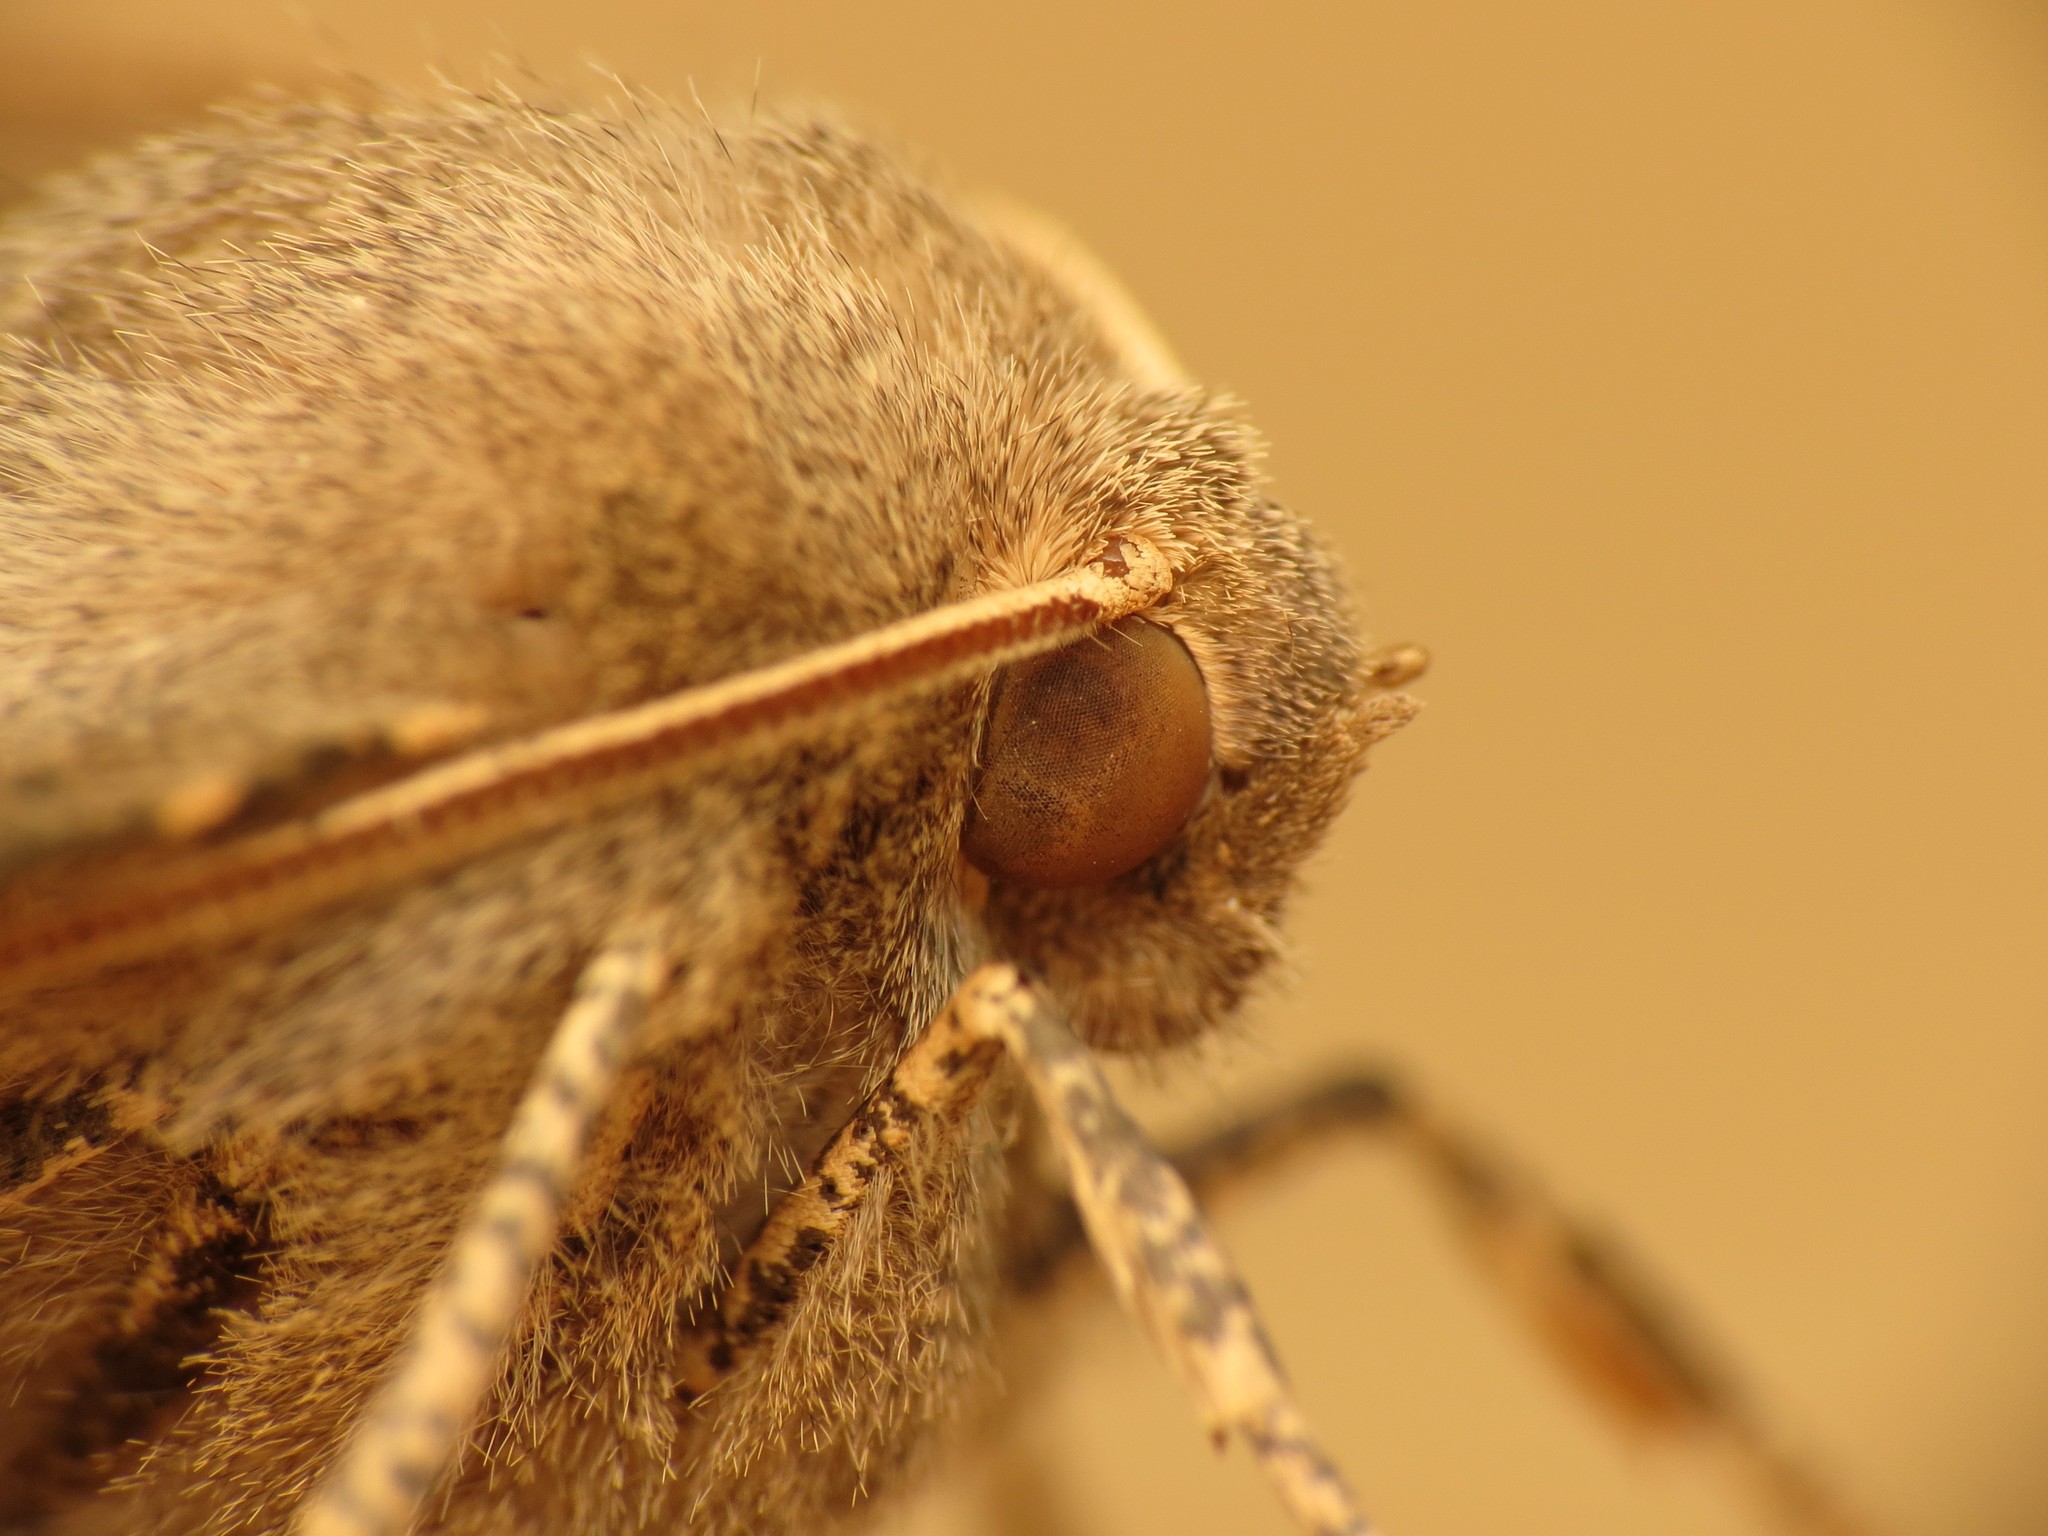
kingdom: Animalia
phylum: Arthropoda
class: Insecta
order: Lepidoptera
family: Geometridae
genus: Odontopera
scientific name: Odontopera bidentata
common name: Scalloped hazel
